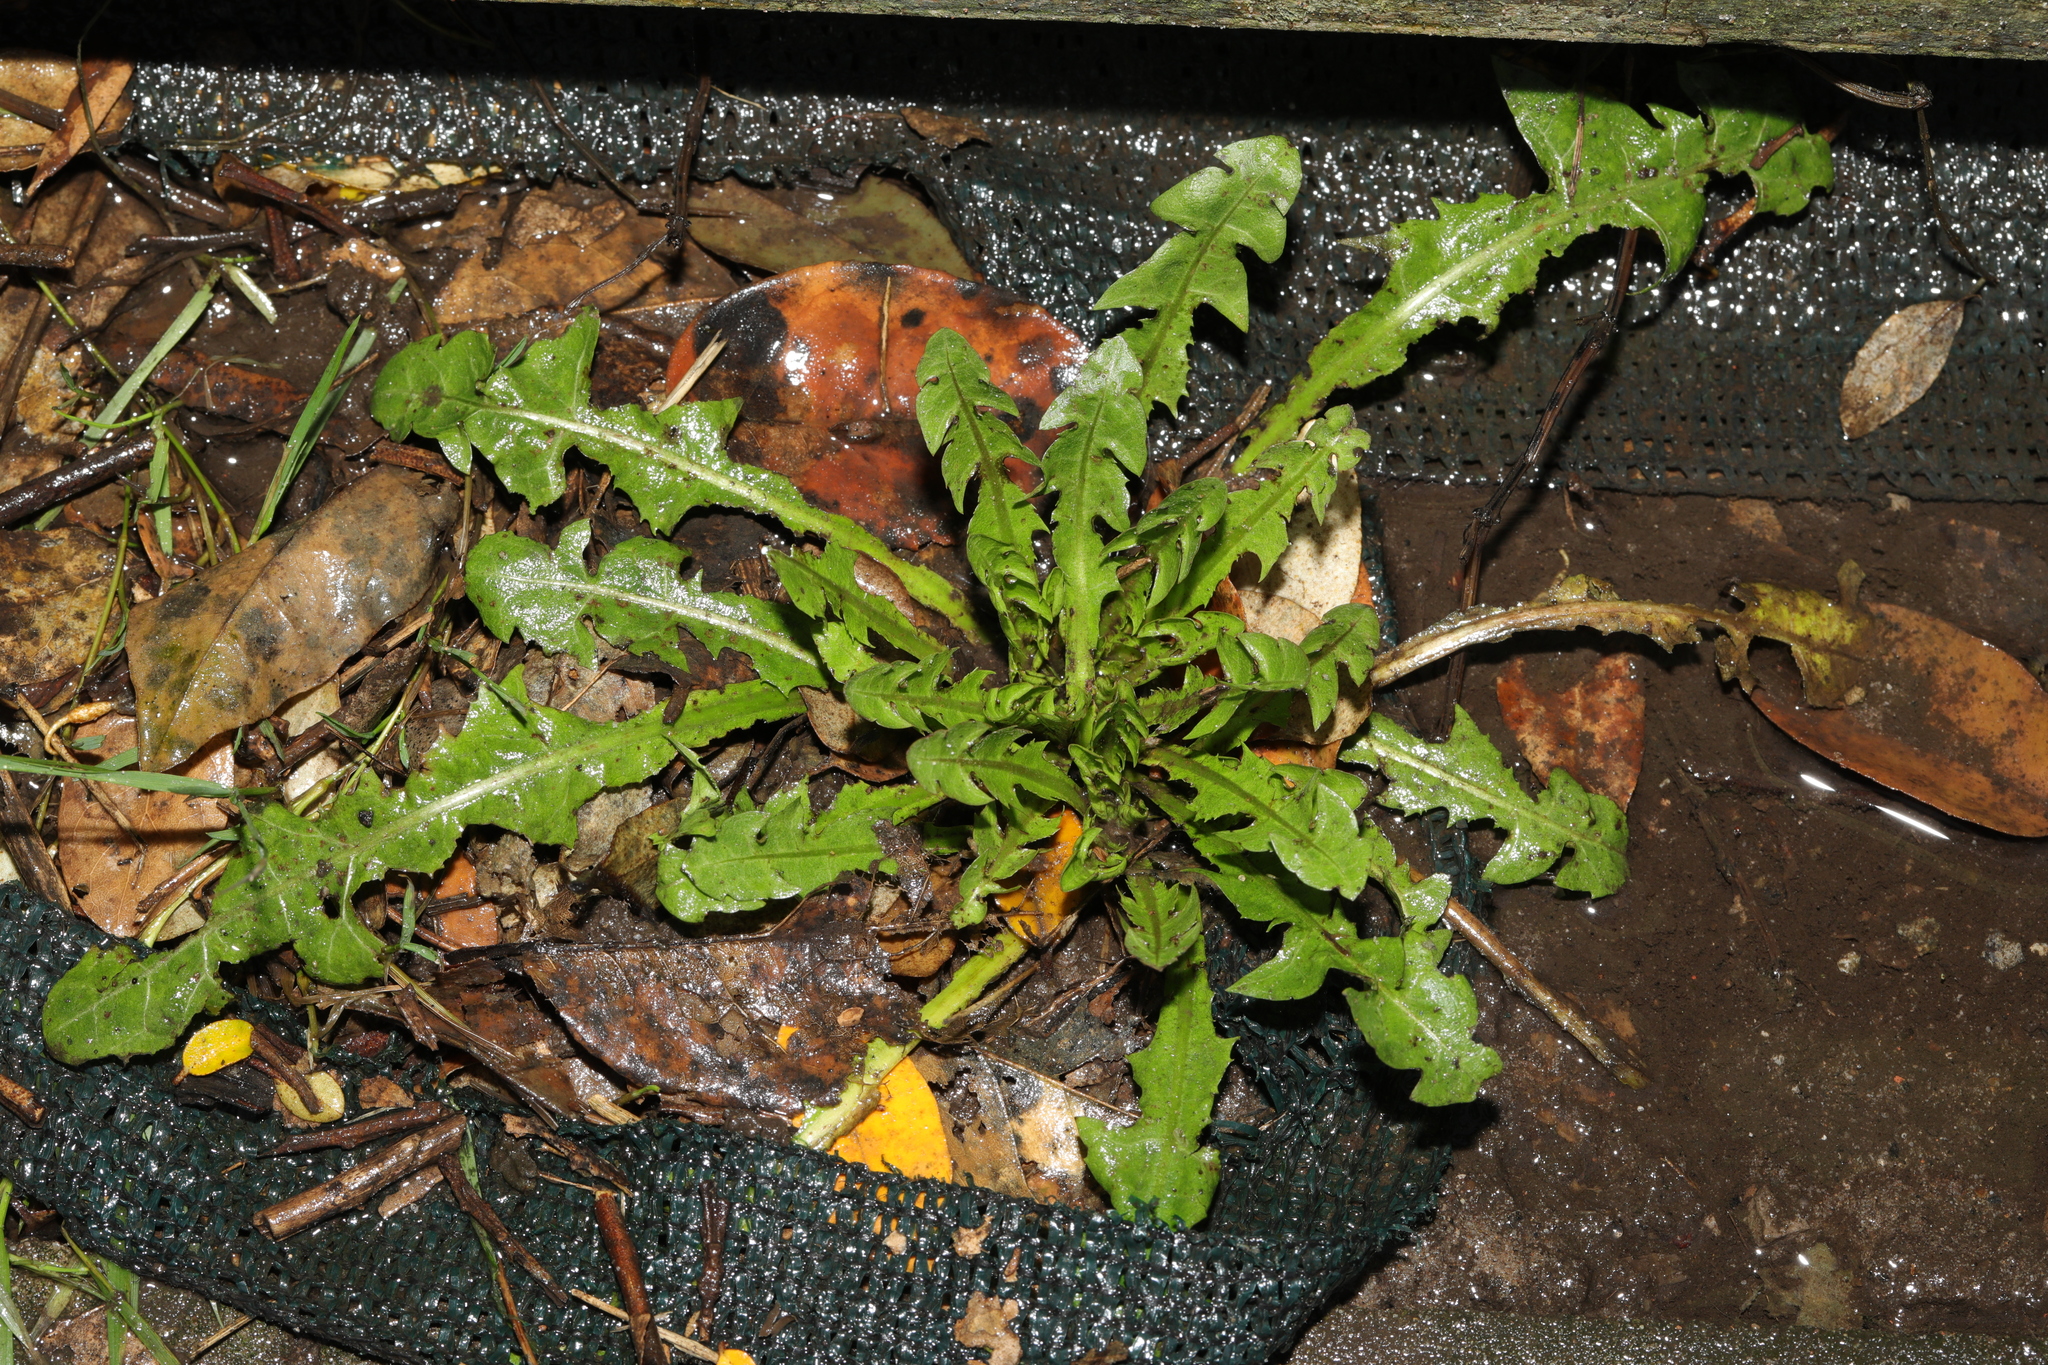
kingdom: Plantae
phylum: Tracheophyta
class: Magnoliopsida
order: Asterales
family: Asteraceae
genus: Taraxacum
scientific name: Taraxacum officinale
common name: Common dandelion
